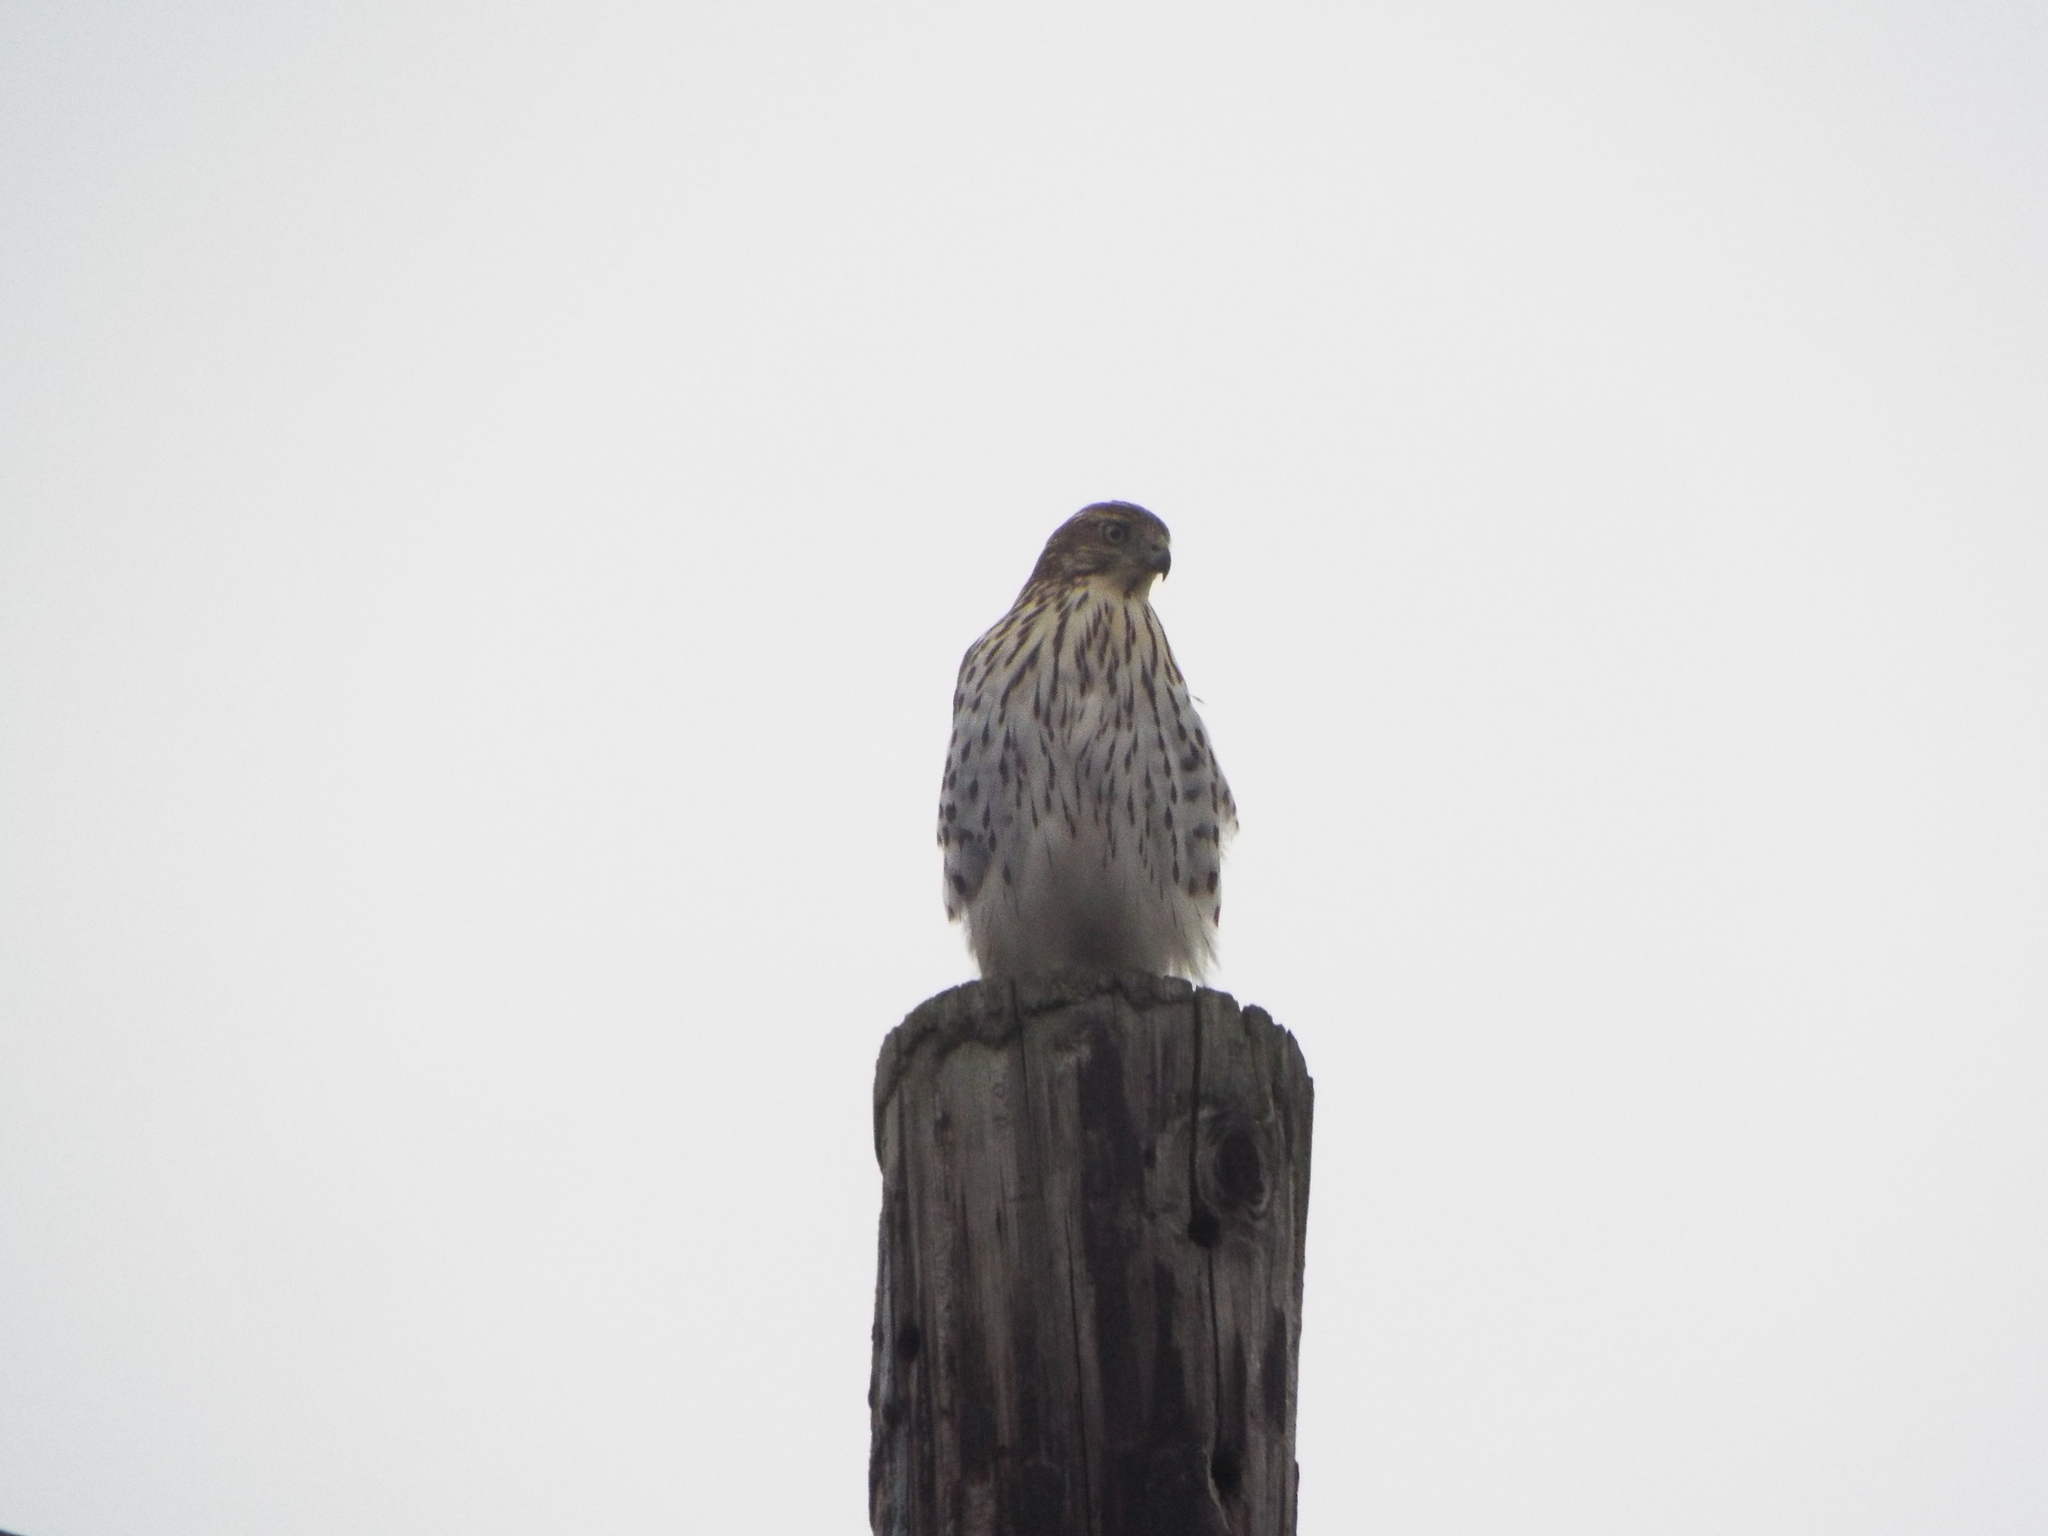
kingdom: Animalia
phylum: Chordata
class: Aves
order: Accipitriformes
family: Accipitridae
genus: Accipiter
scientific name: Accipiter cooperii
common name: Cooper's hawk
